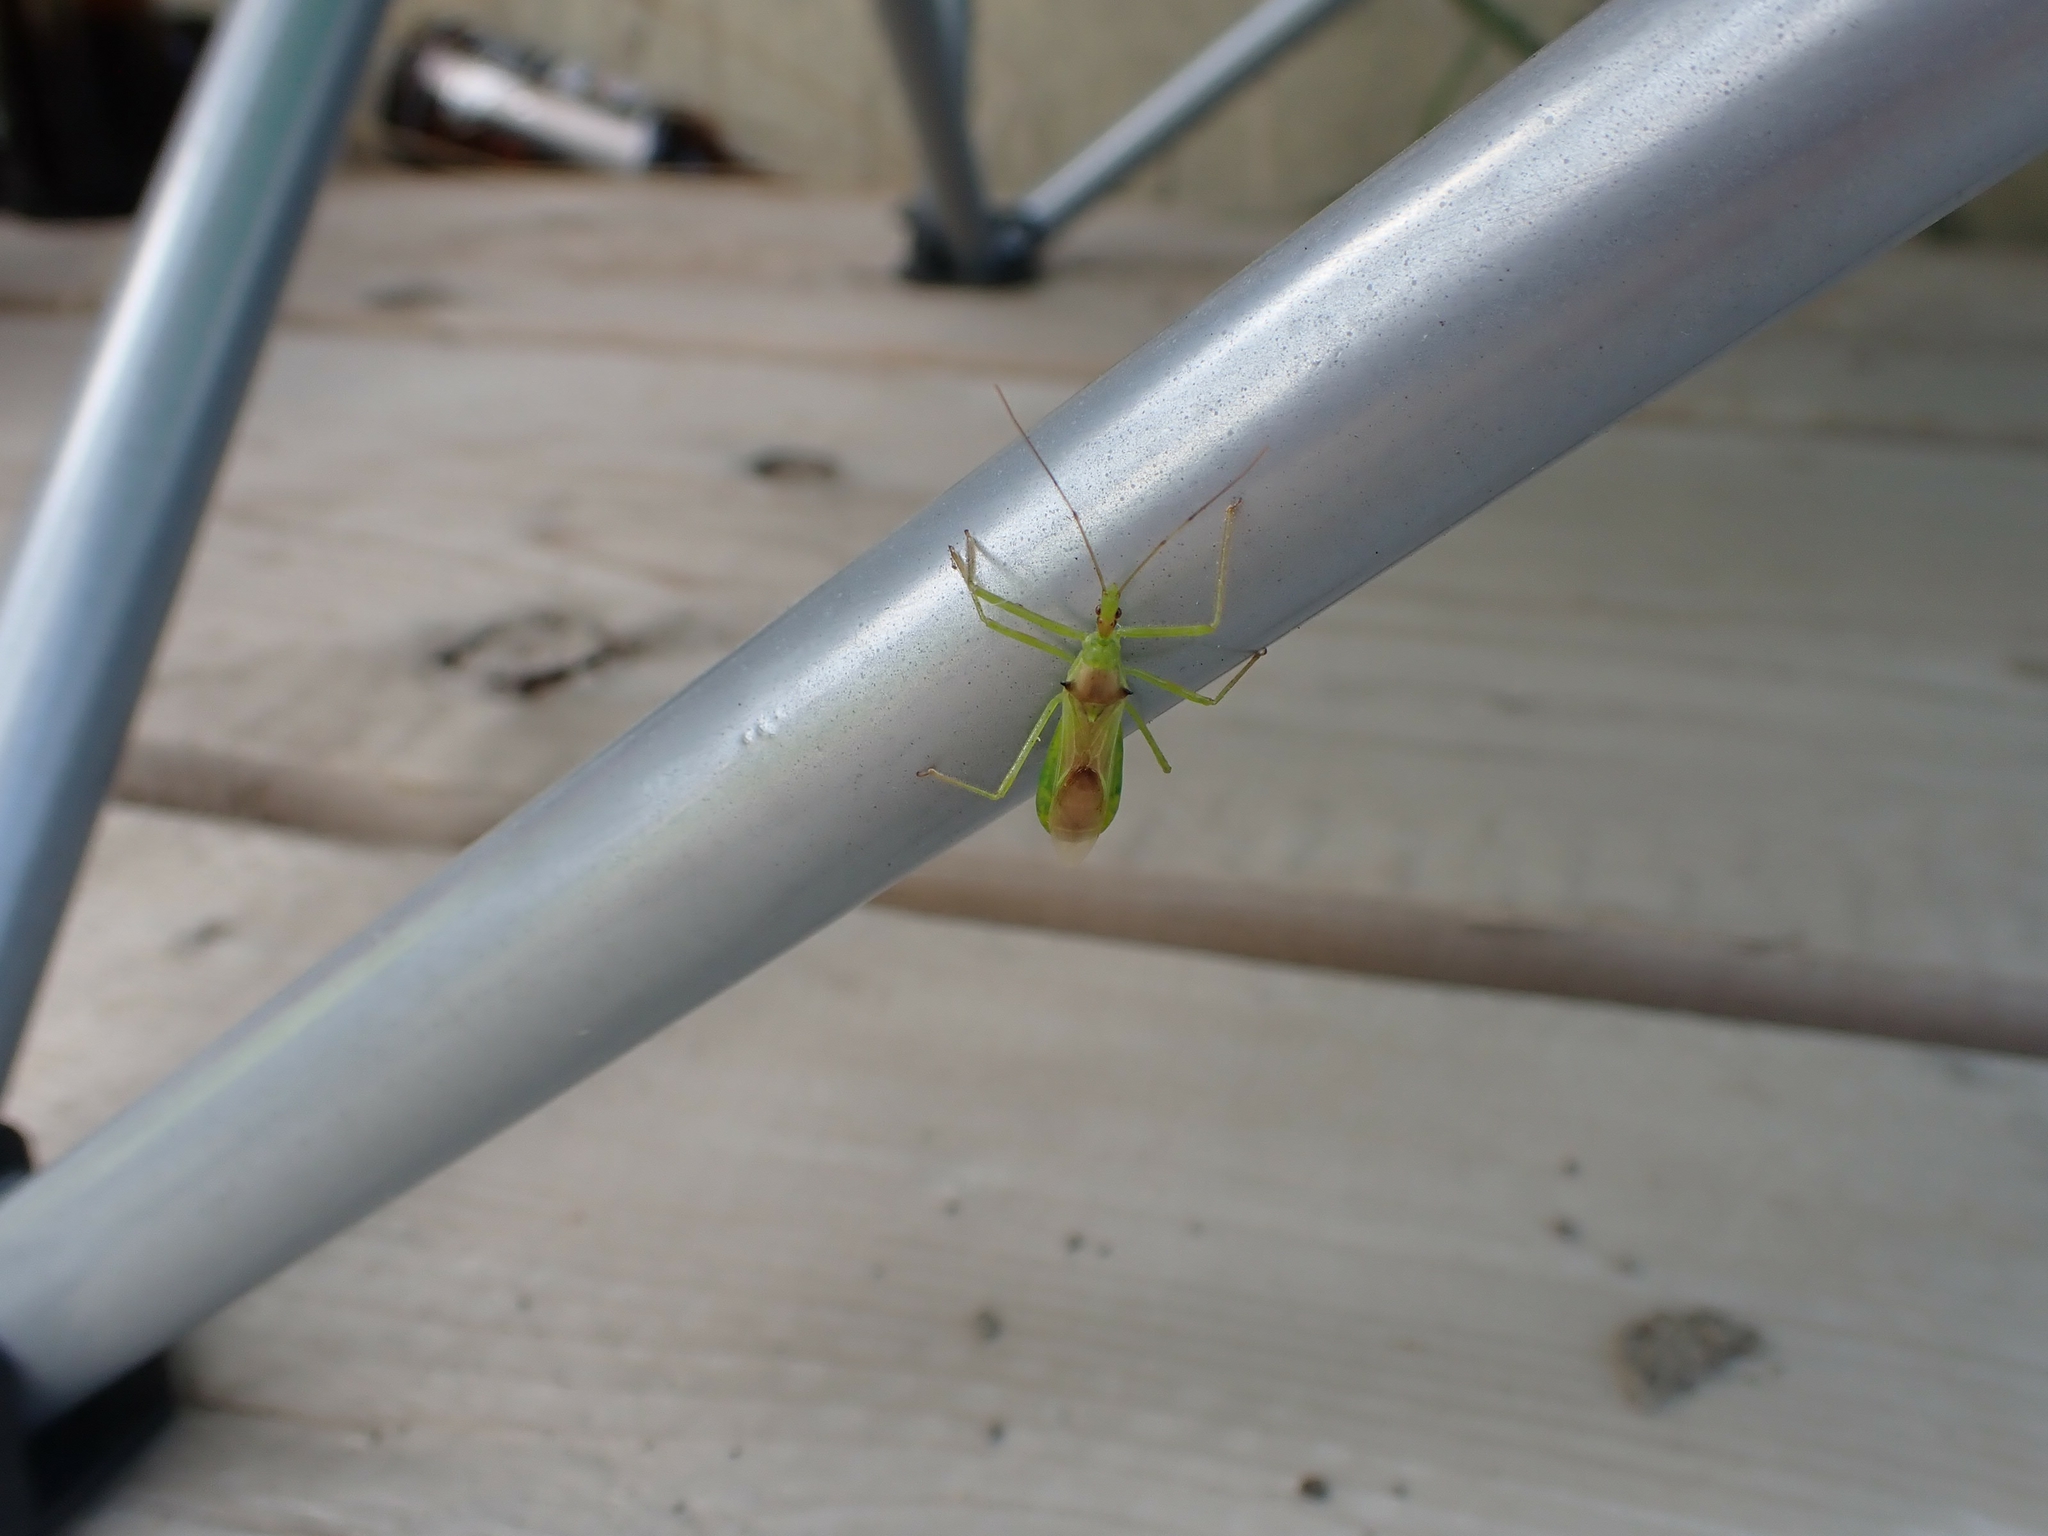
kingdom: Animalia
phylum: Arthropoda
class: Insecta
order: Hemiptera
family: Reduviidae
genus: Zelus
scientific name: Zelus luridus
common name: Pale green assassin bug
